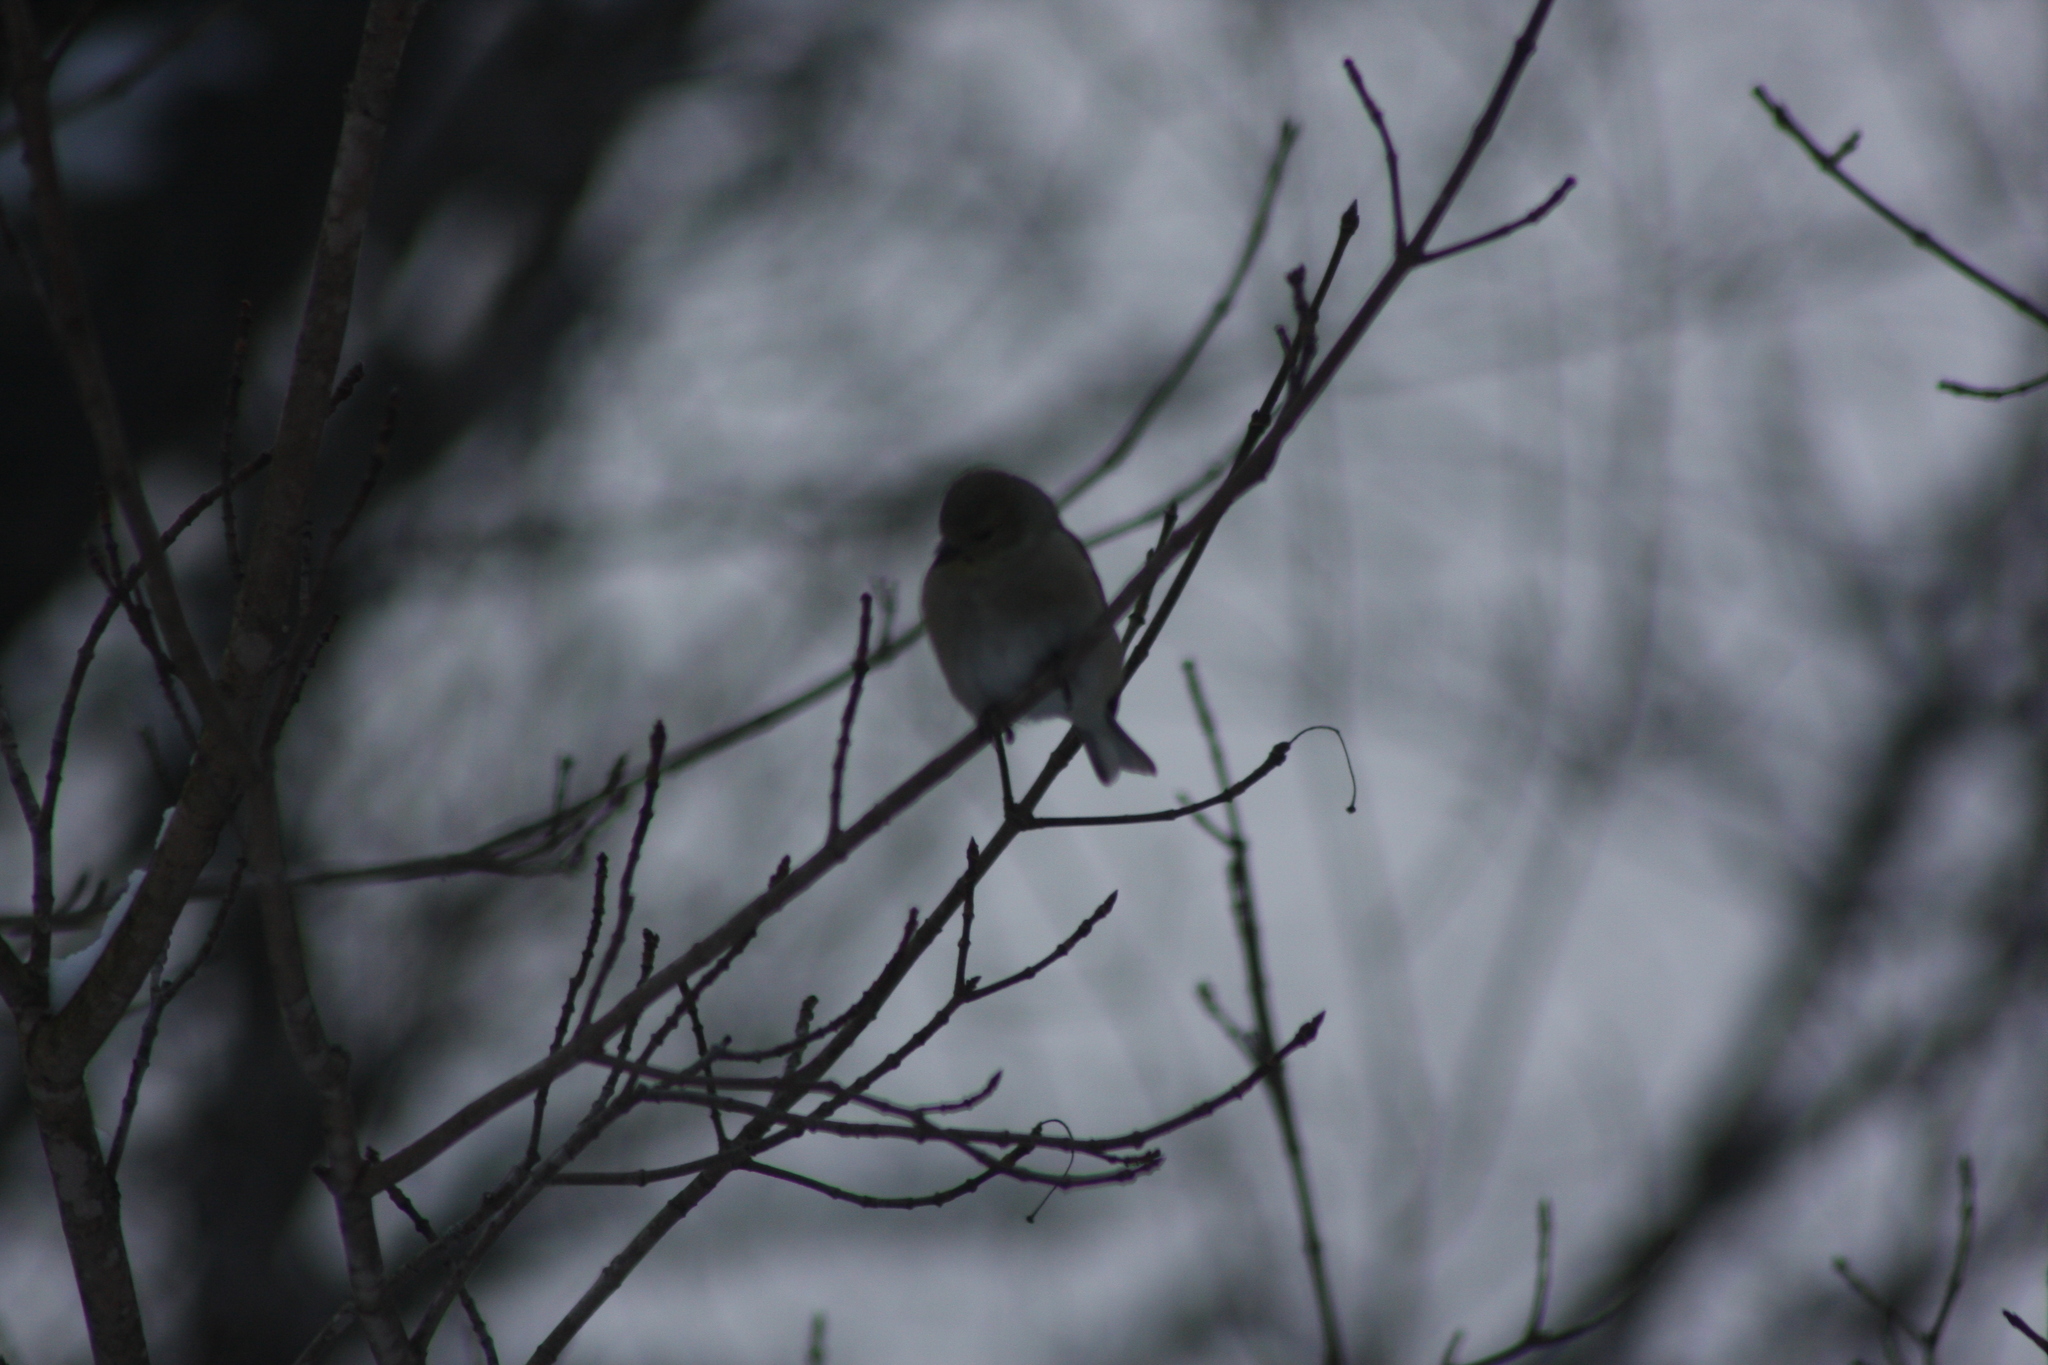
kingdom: Animalia
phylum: Chordata
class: Aves
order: Passeriformes
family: Fringillidae
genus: Spinus
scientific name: Spinus tristis
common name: American goldfinch
